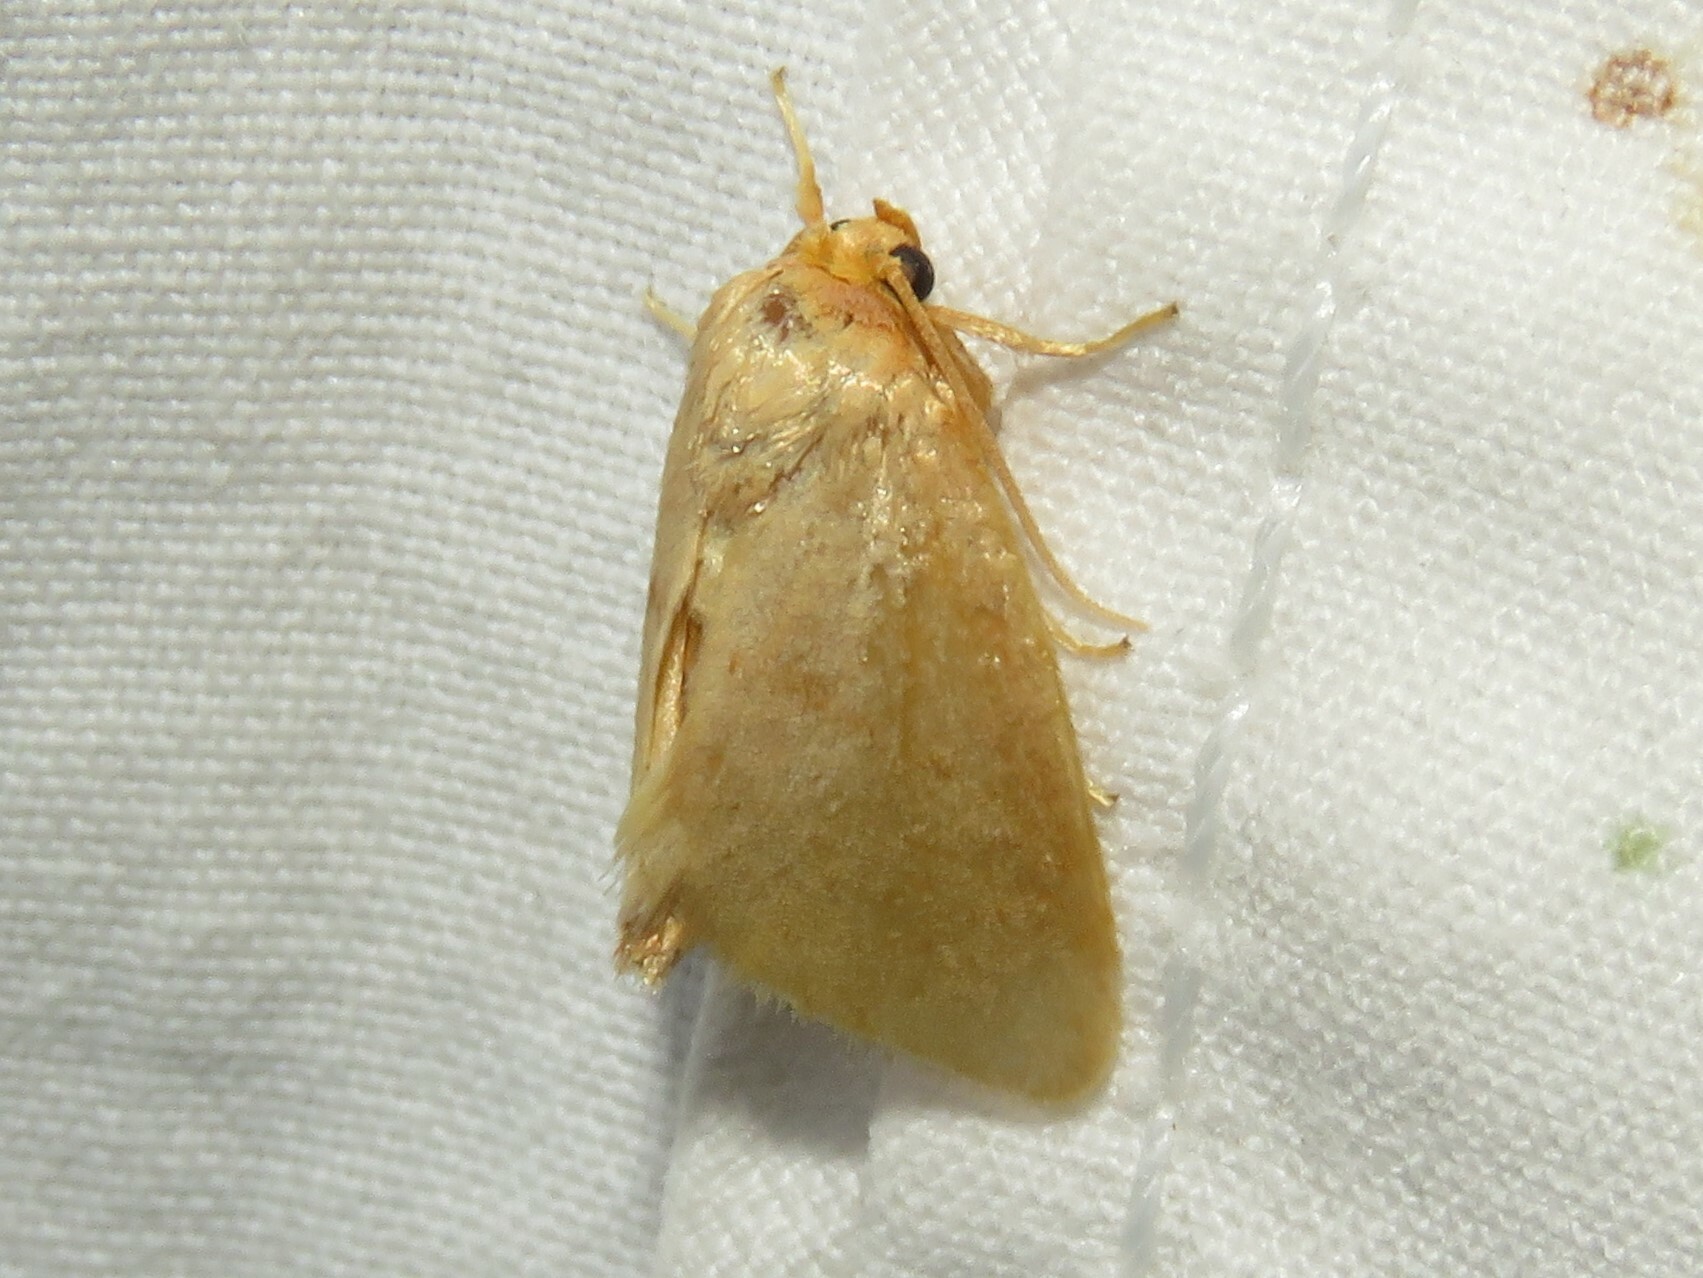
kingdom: Animalia
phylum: Arthropoda
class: Insecta
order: Lepidoptera
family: Limacodidae
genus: Tortricidia
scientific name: Tortricidia pallida
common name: Red-crossed button slug moth
